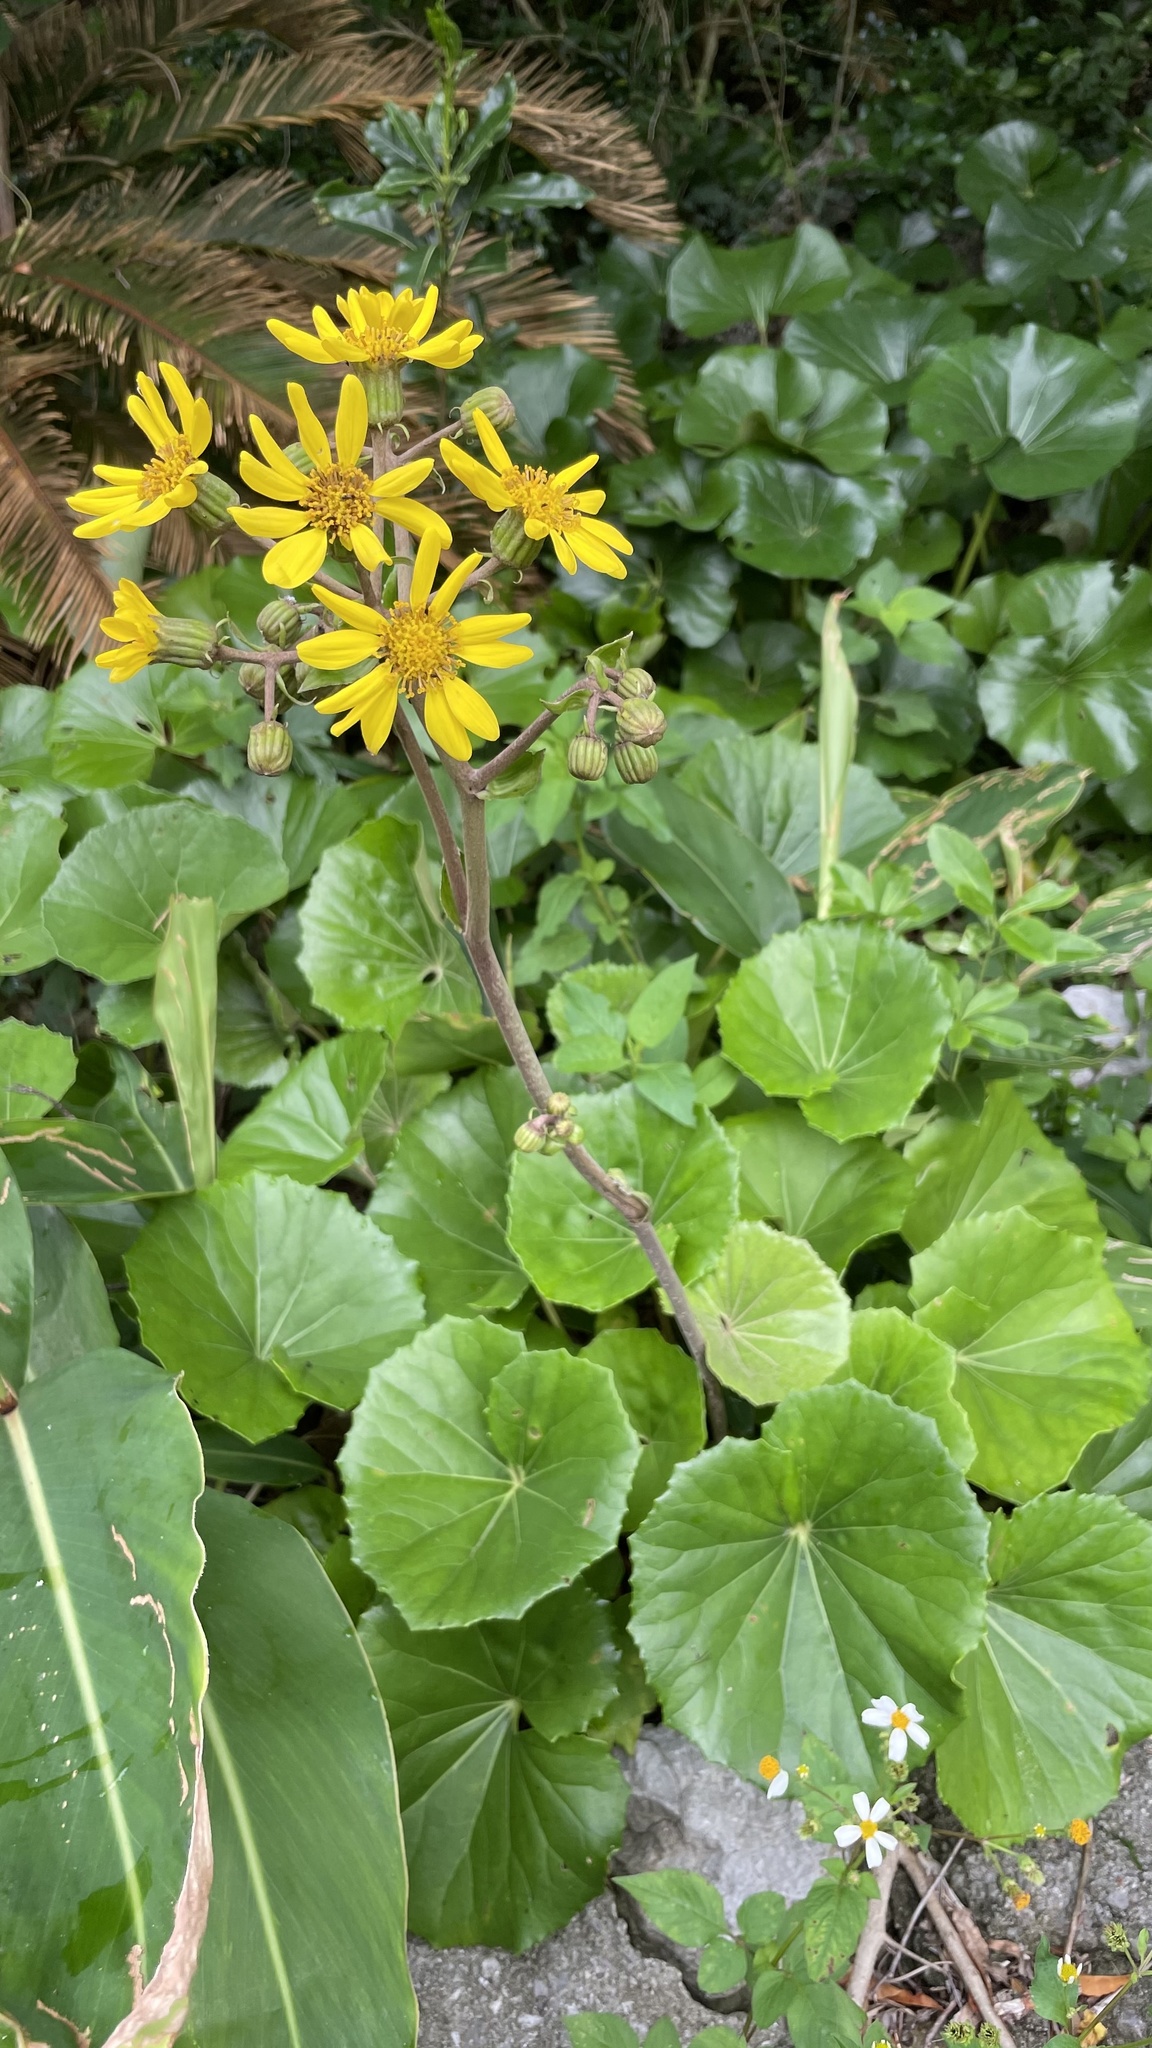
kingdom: Plantae
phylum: Tracheophyta
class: Magnoliopsida
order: Asterales
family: Asteraceae
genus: Farfugium
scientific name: Farfugium japonicum
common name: Leopardplant
